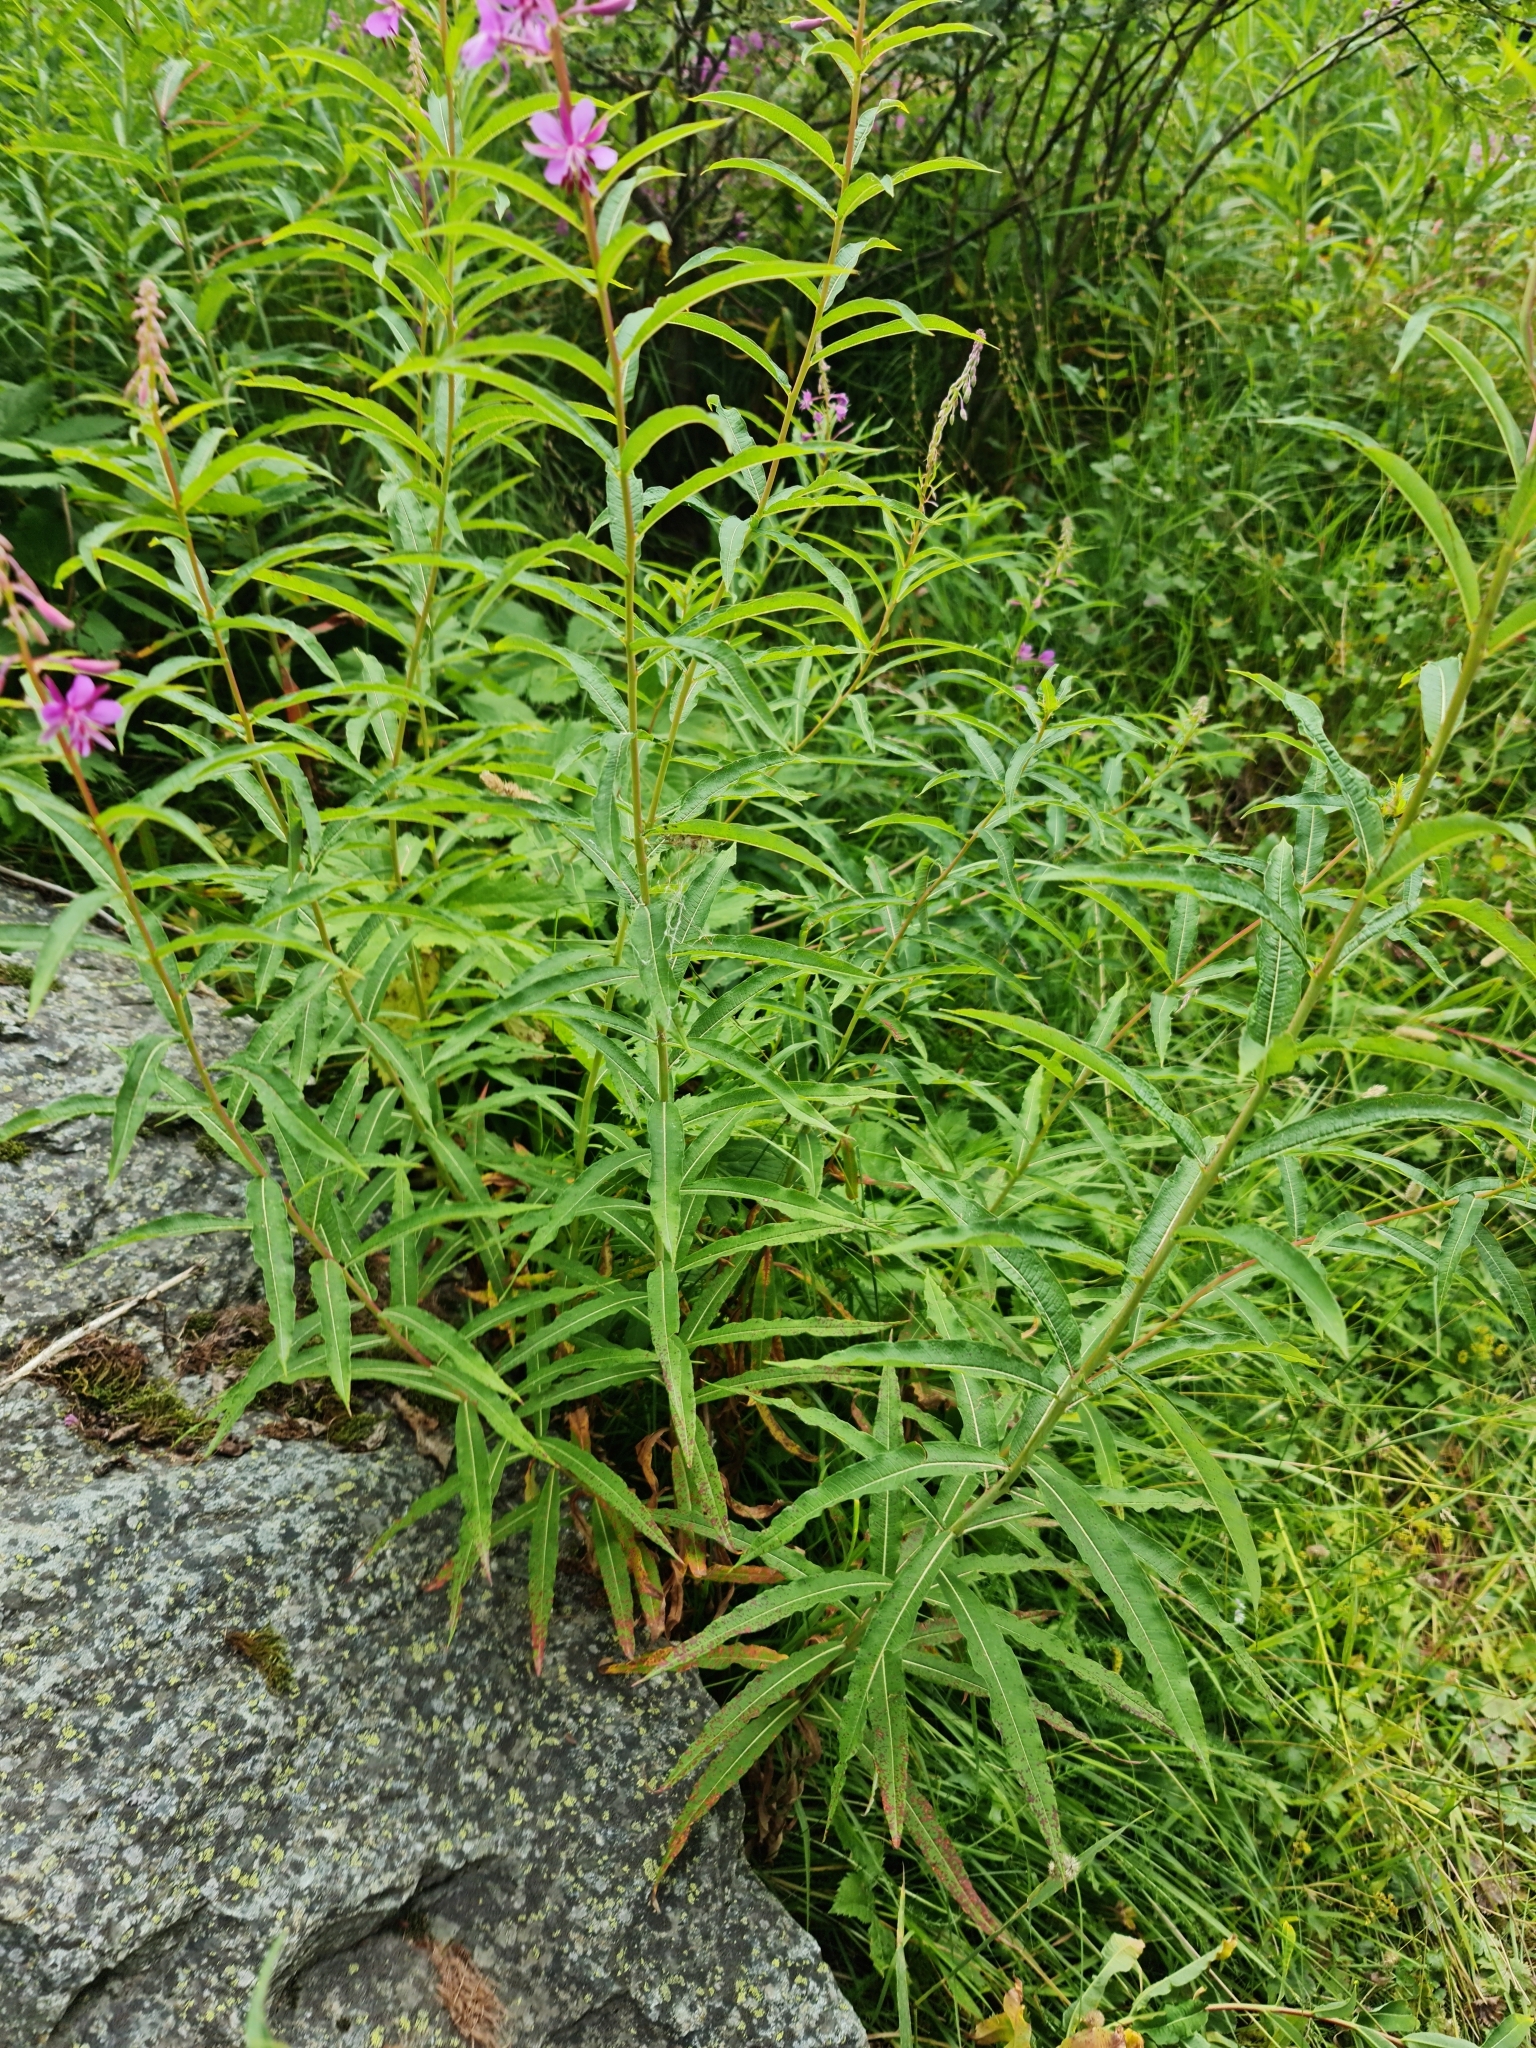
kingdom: Plantae
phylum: Tracheophyta
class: Magnoliopsida
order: Myrtales
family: Onagraceae
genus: Chamaenerion
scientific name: Chamaenerion angustifolium
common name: Fireweed
